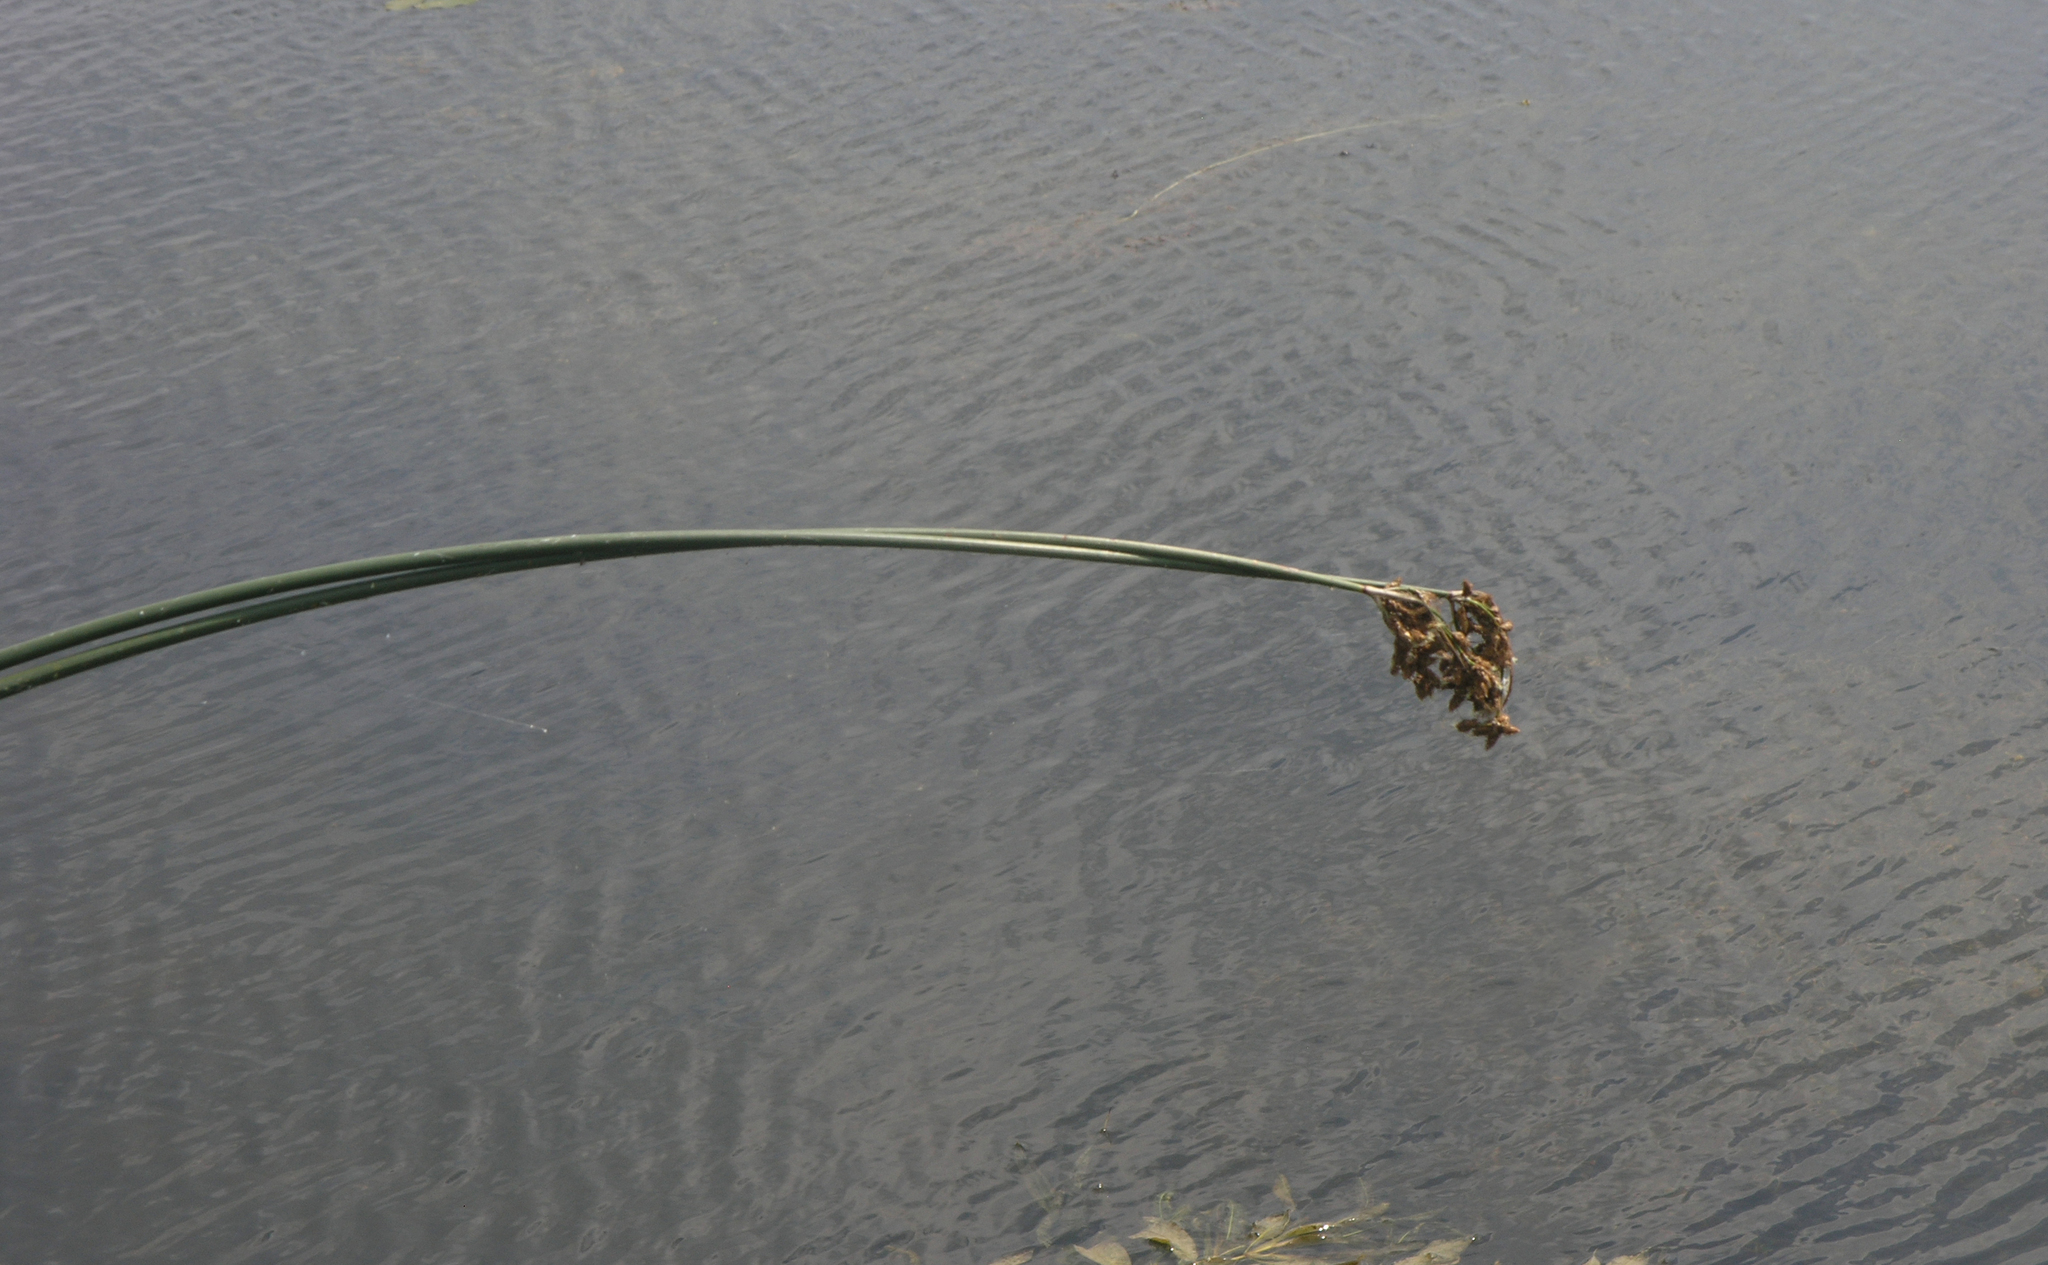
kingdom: Plantae
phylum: Tracheophyta
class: Liliopsida
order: Poales
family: Cyperaceae
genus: Schoenoplectus
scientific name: Schoenoplectus lacustris
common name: Common club-rush
